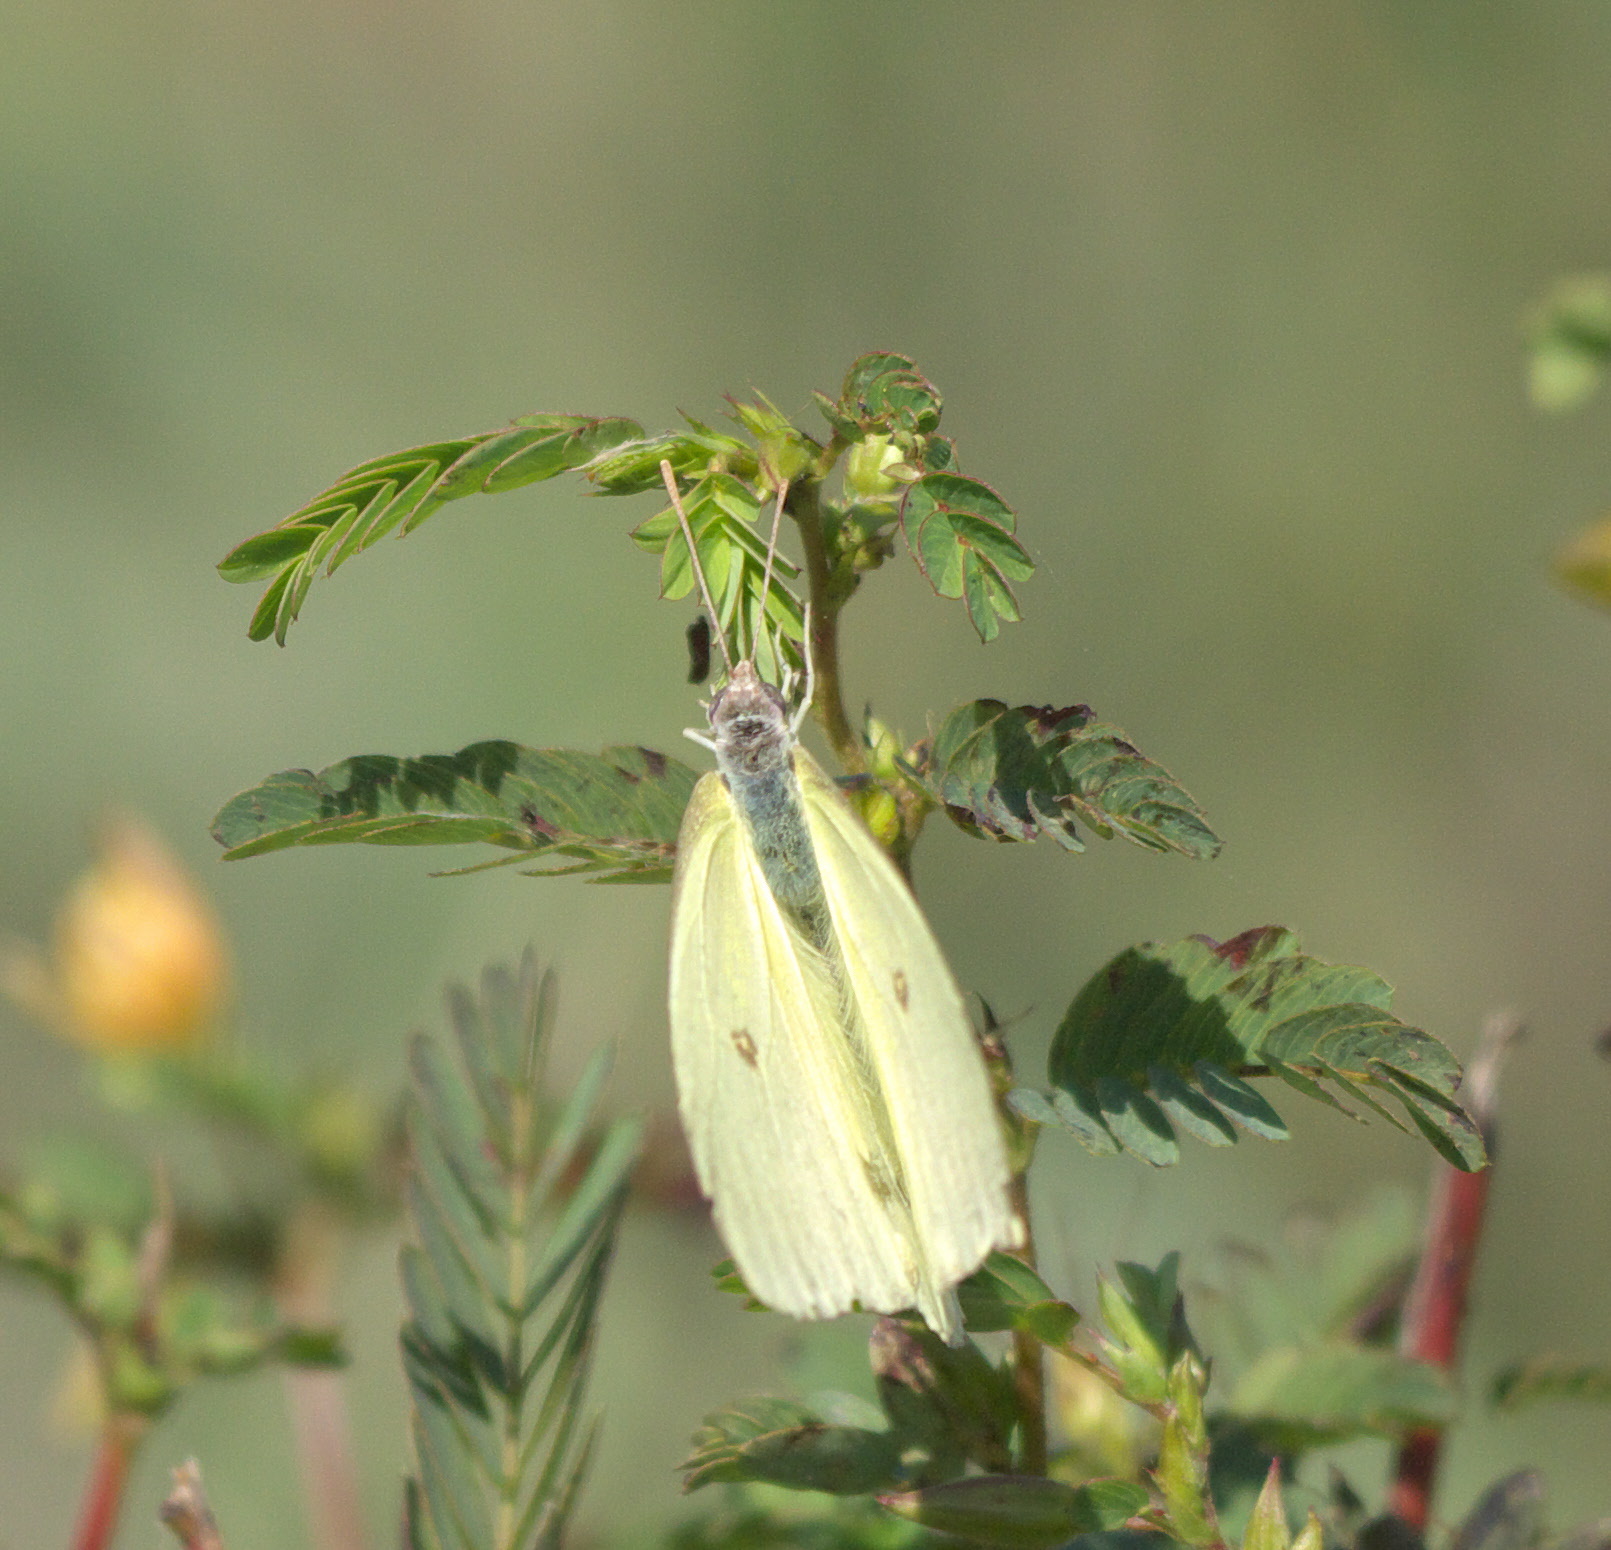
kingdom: Animalia
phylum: Arthropoda
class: Insecta
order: Lepidoptera
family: Pieridae
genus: Phoebis
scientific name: Phoebis sennae
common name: Cloudless sulphur
